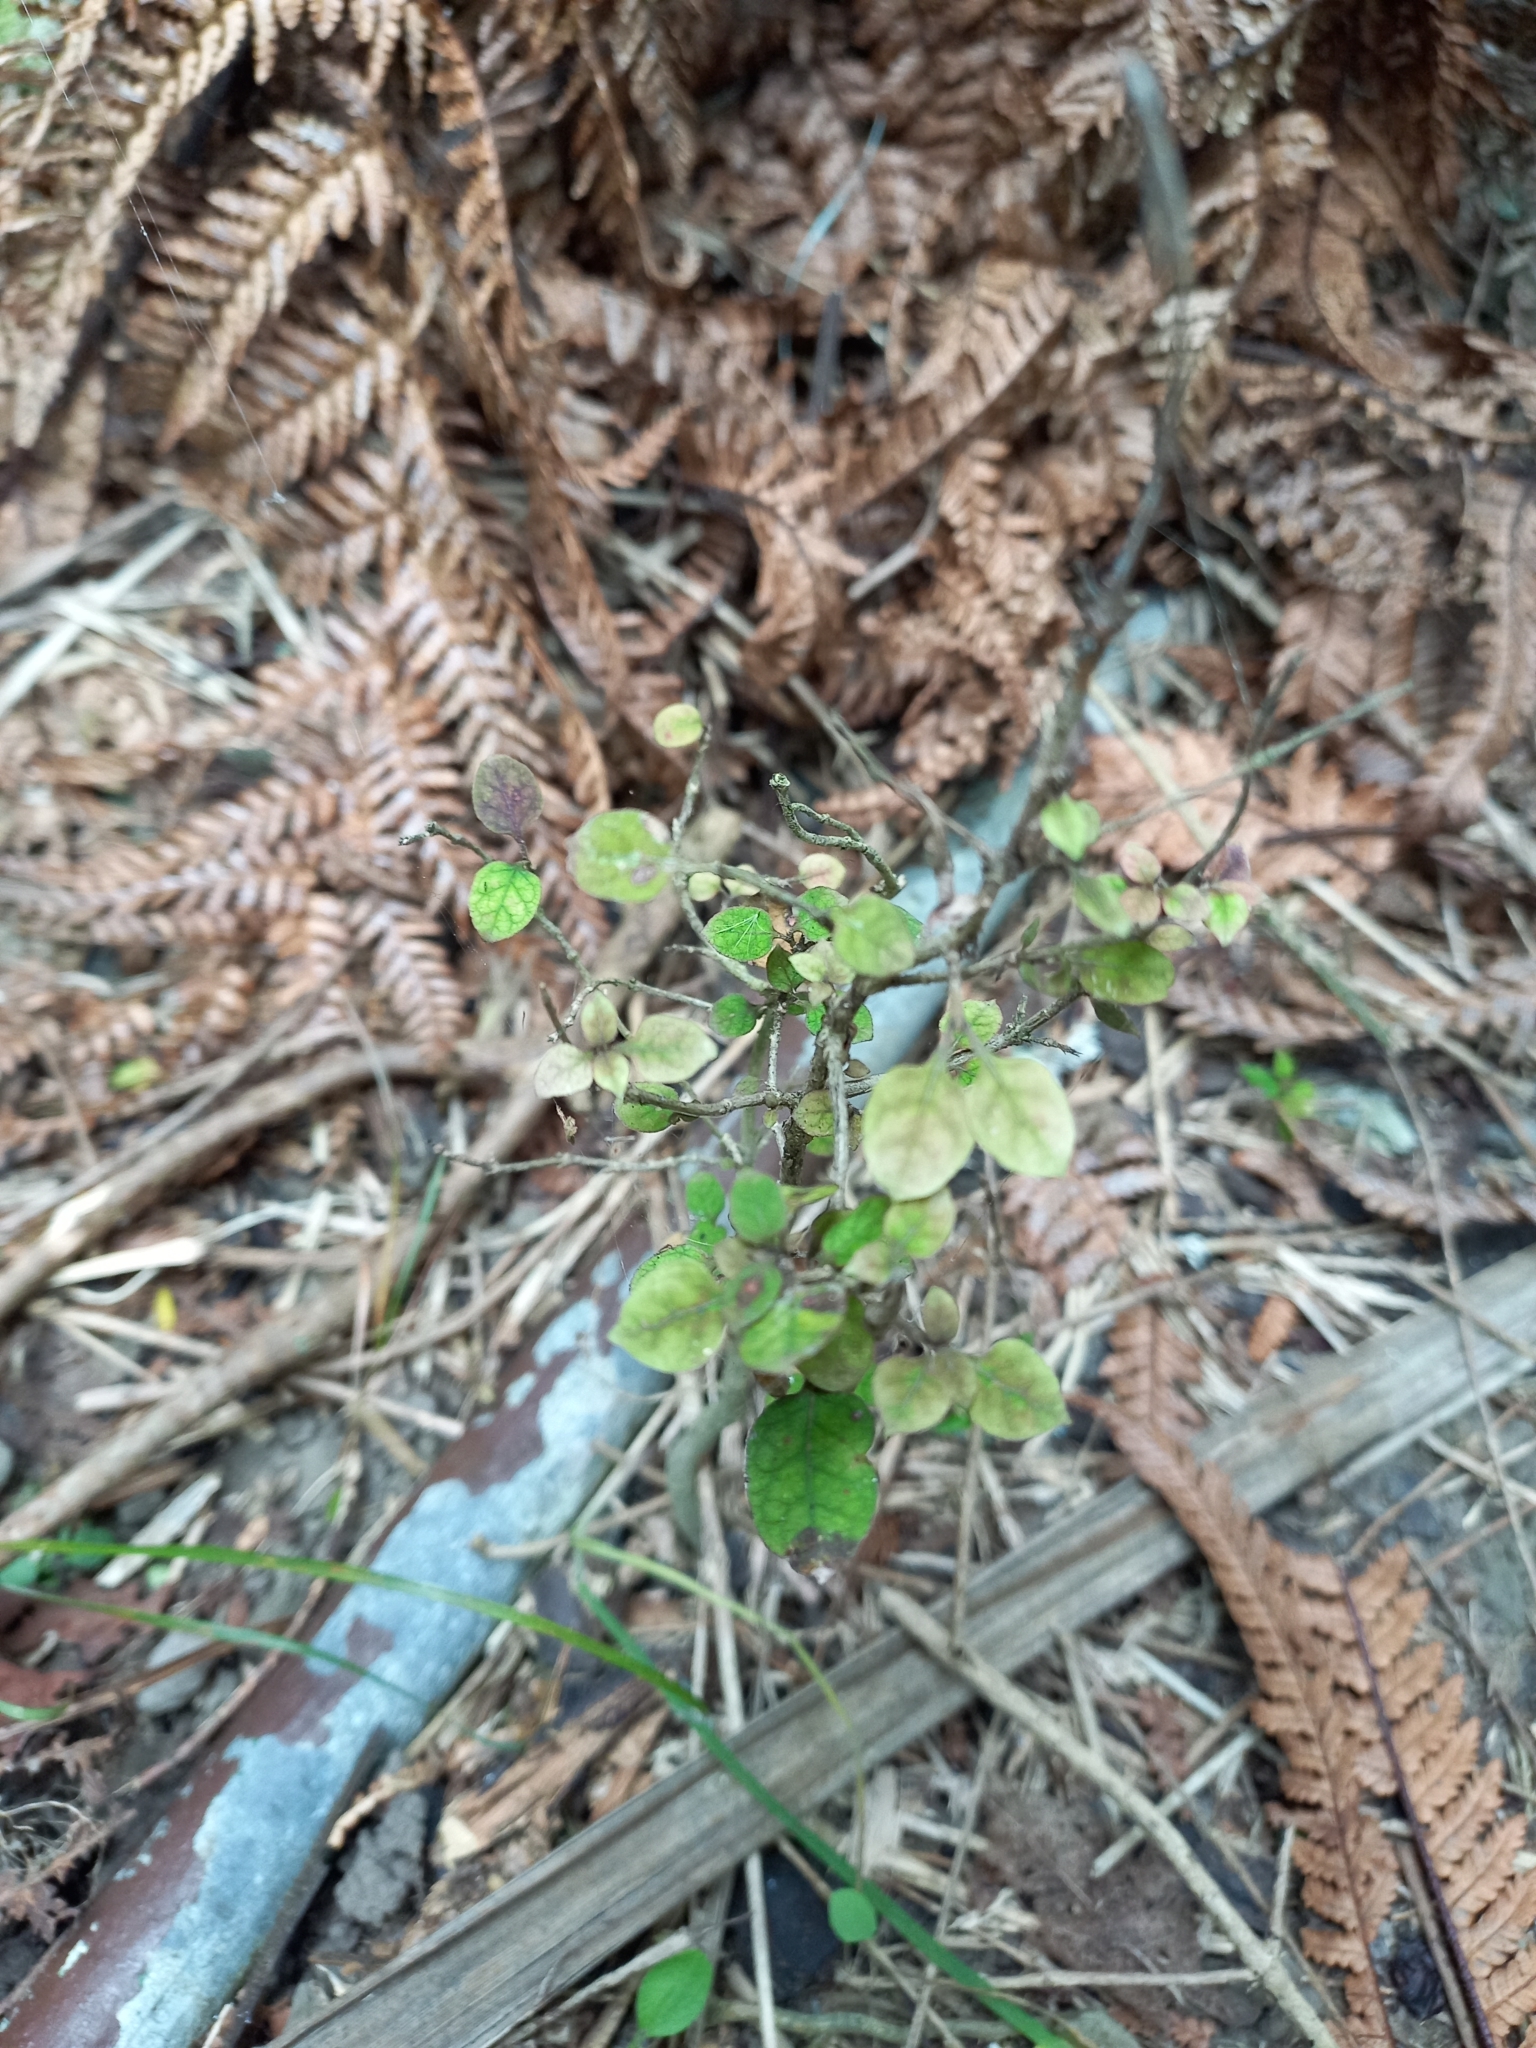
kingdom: Plantae
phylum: Tracheophyta
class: Magnoliopsida
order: Gentianales
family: Rubiaceae
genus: Coprosma
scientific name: Coprosma areolata
